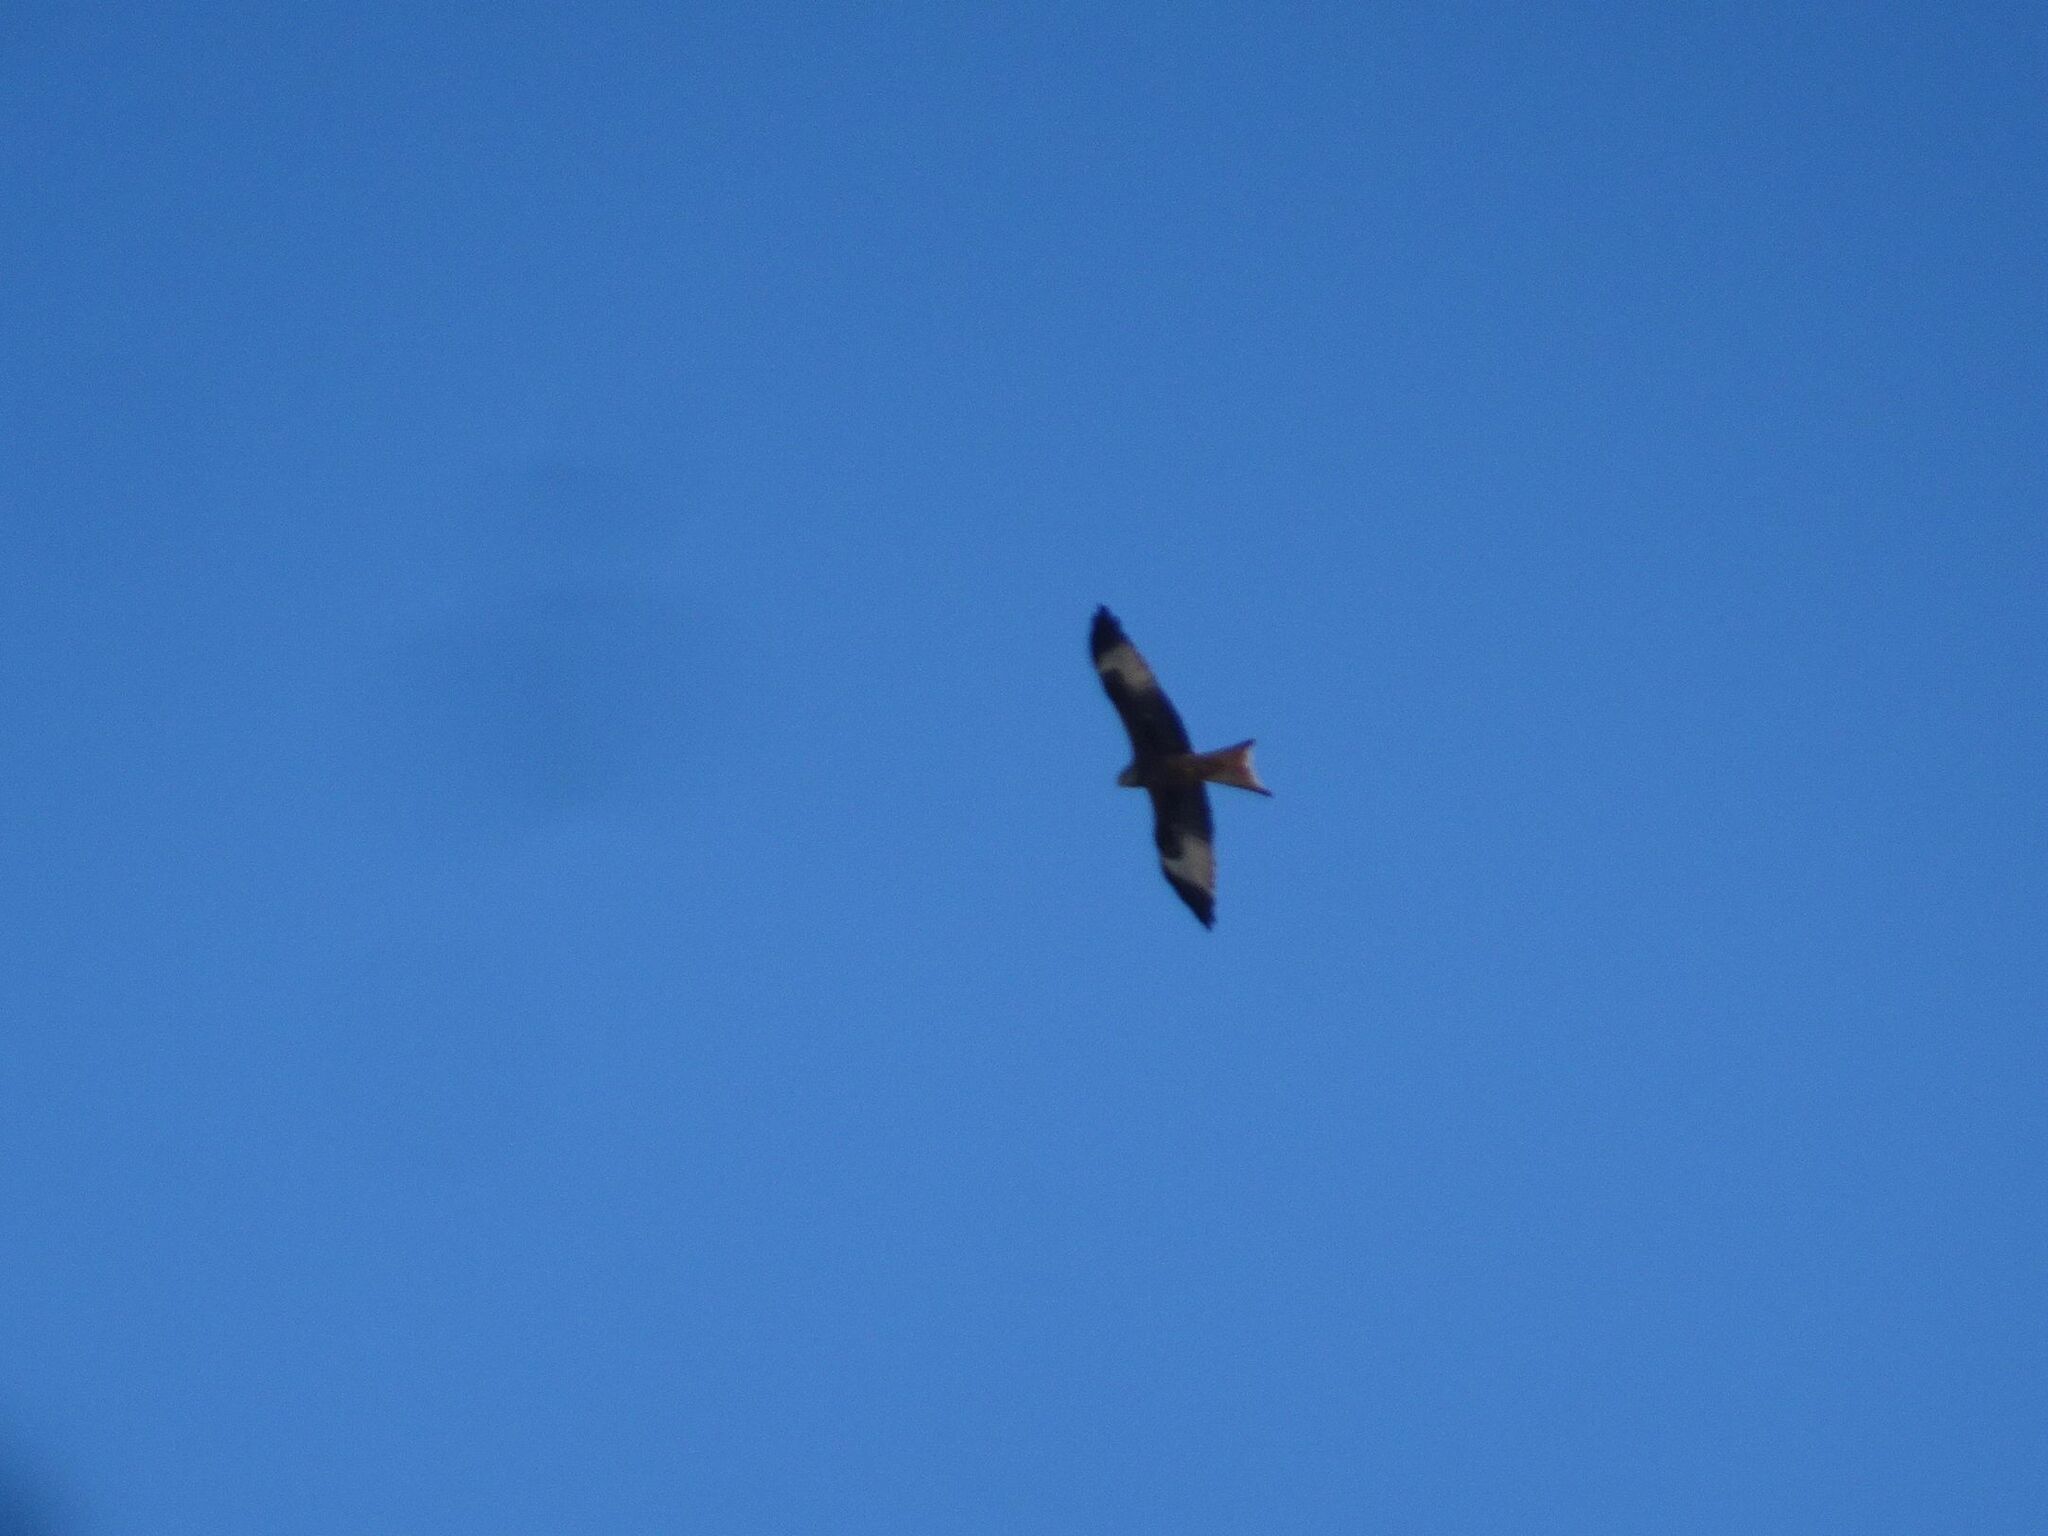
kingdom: Animalia
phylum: Chordata
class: Aves
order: Accipitriformes
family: Accipitridae
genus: Milvus
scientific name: Milvus milvus
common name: Red kite
